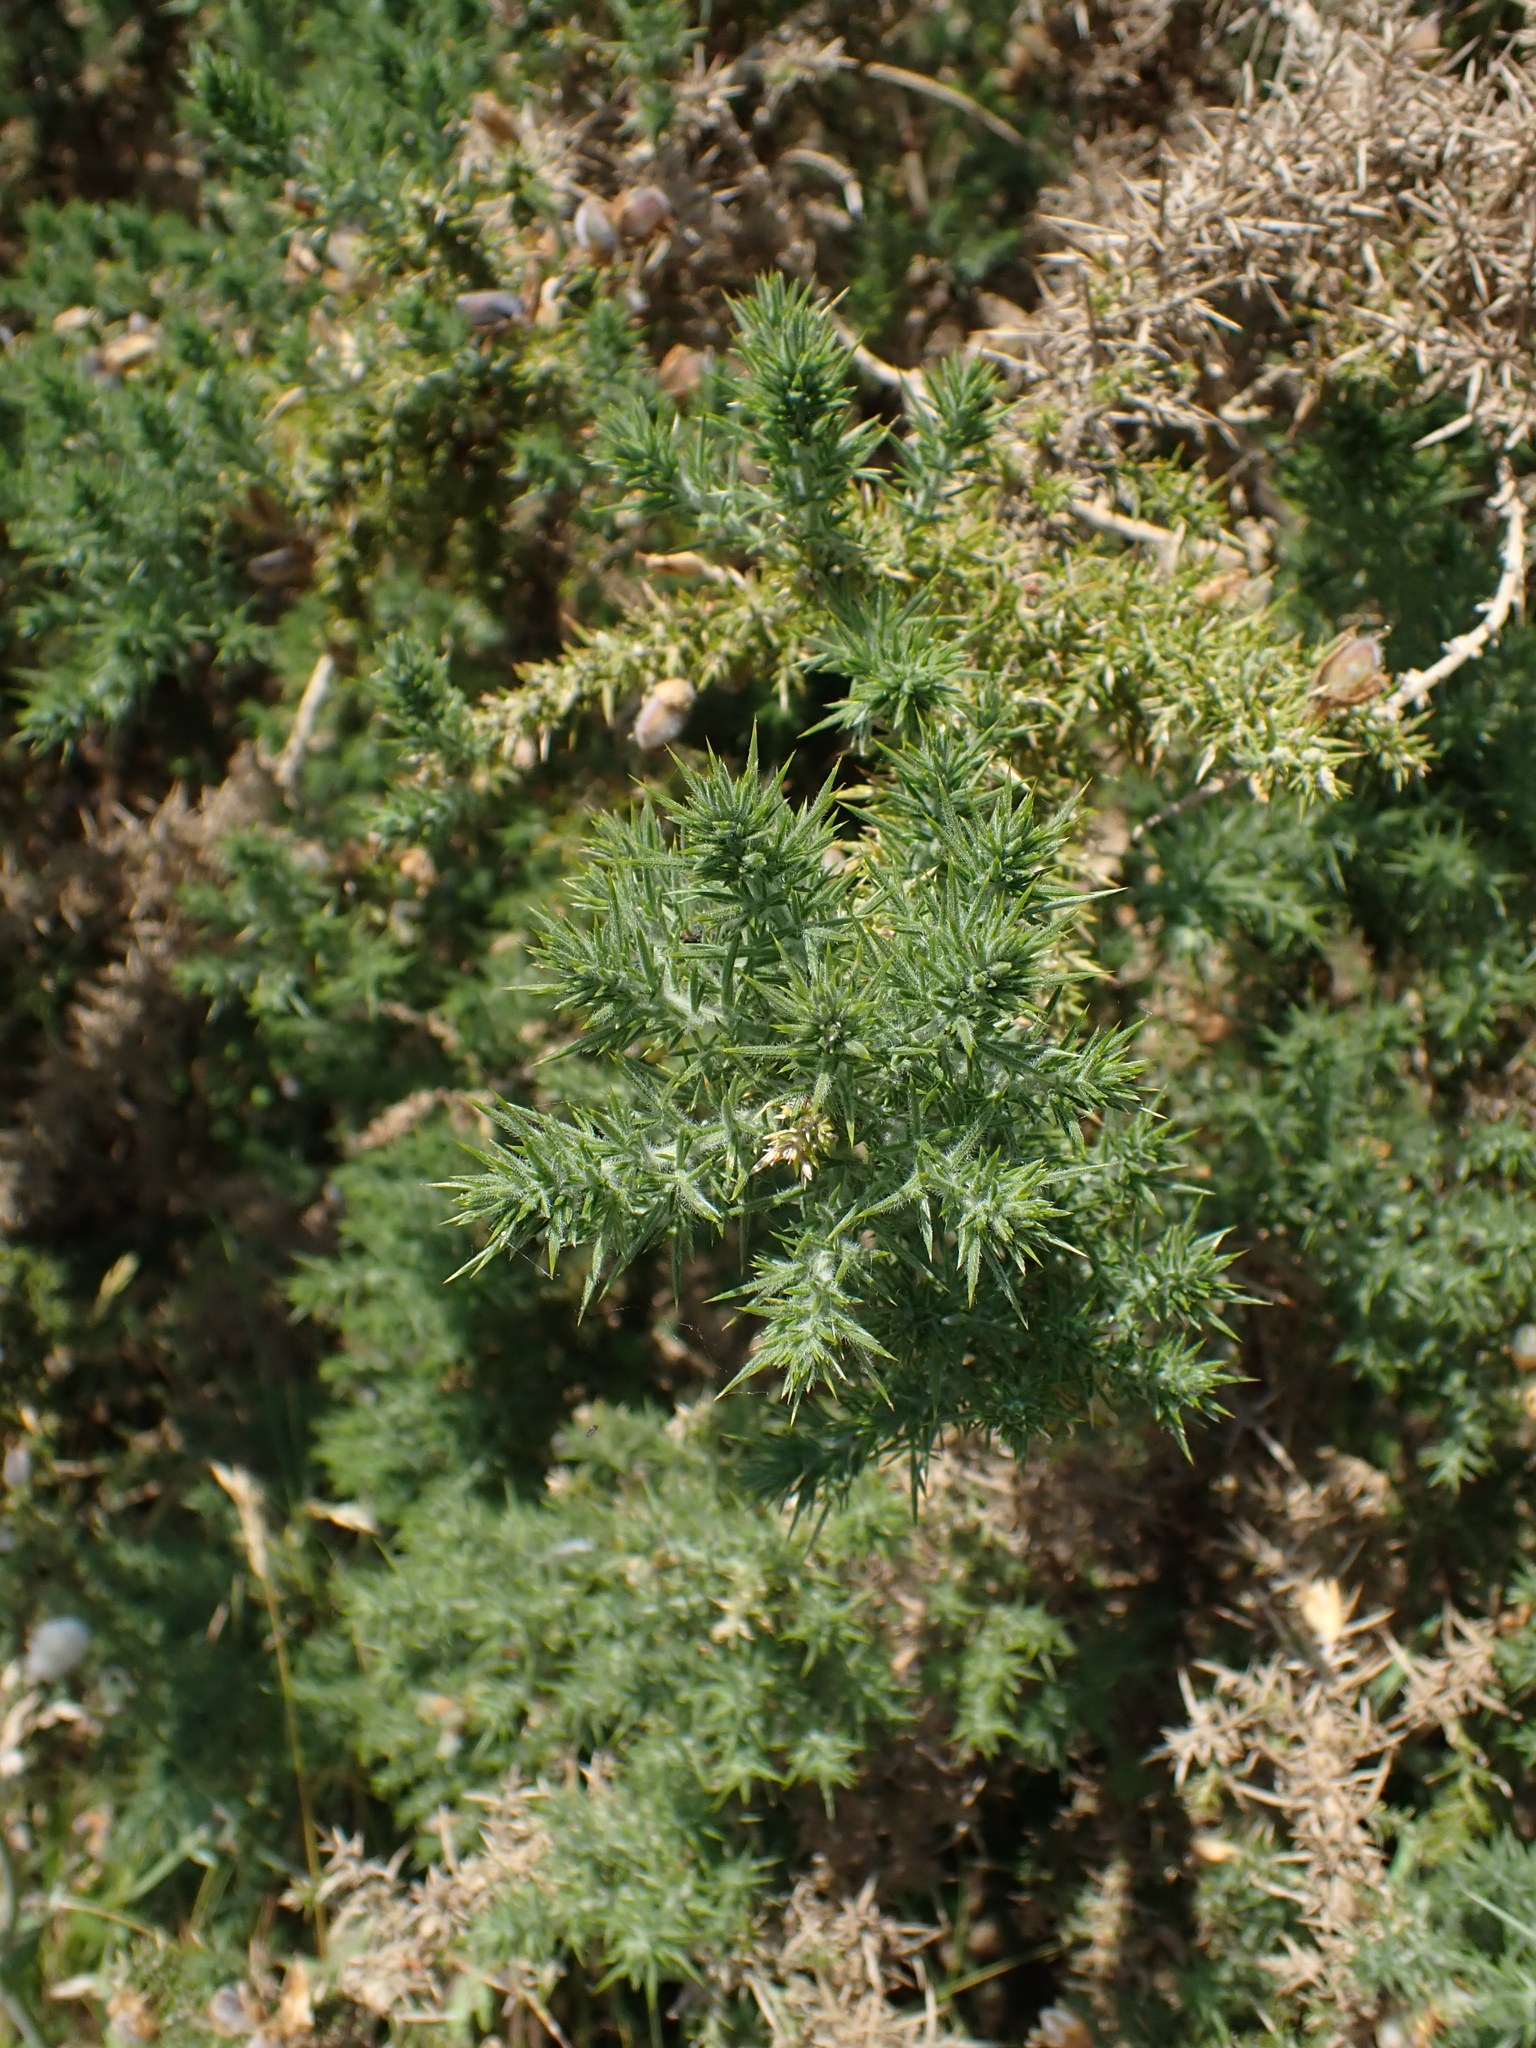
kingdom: Plantae
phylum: Tracheophyta
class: Magnoliopsida
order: Fabales
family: Fabaceae
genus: Ulex
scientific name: Ulex europaeus
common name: Common gorse
